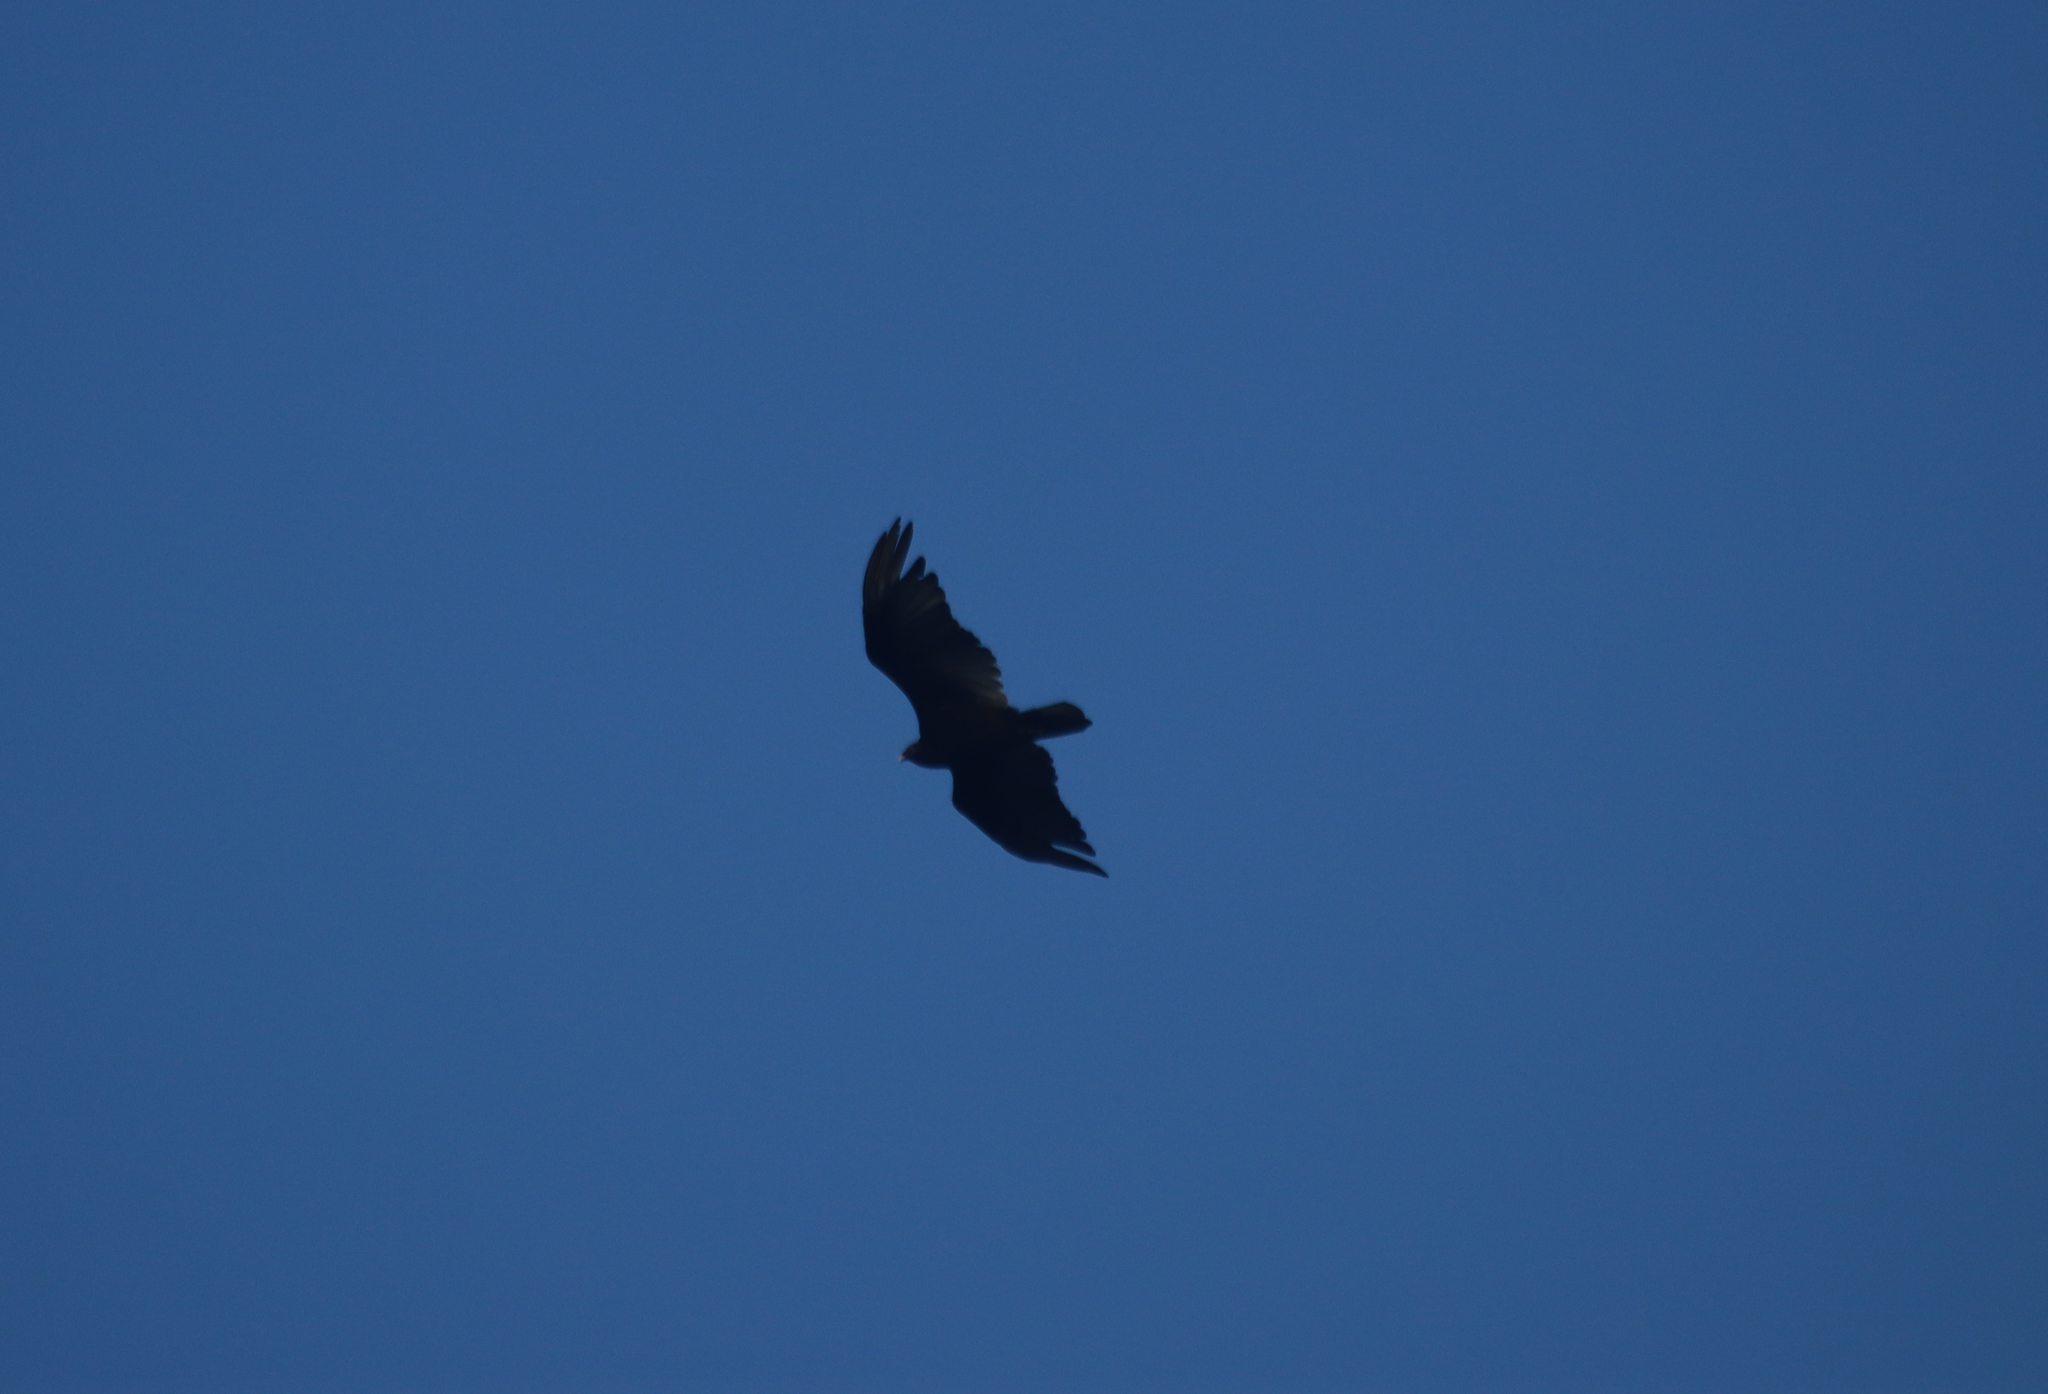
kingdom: Animalia
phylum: Chordata
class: Aves
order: Accipitriformes
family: Cathartidae
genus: Cathartes
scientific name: Cathartes aura
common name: Turkey vulture
